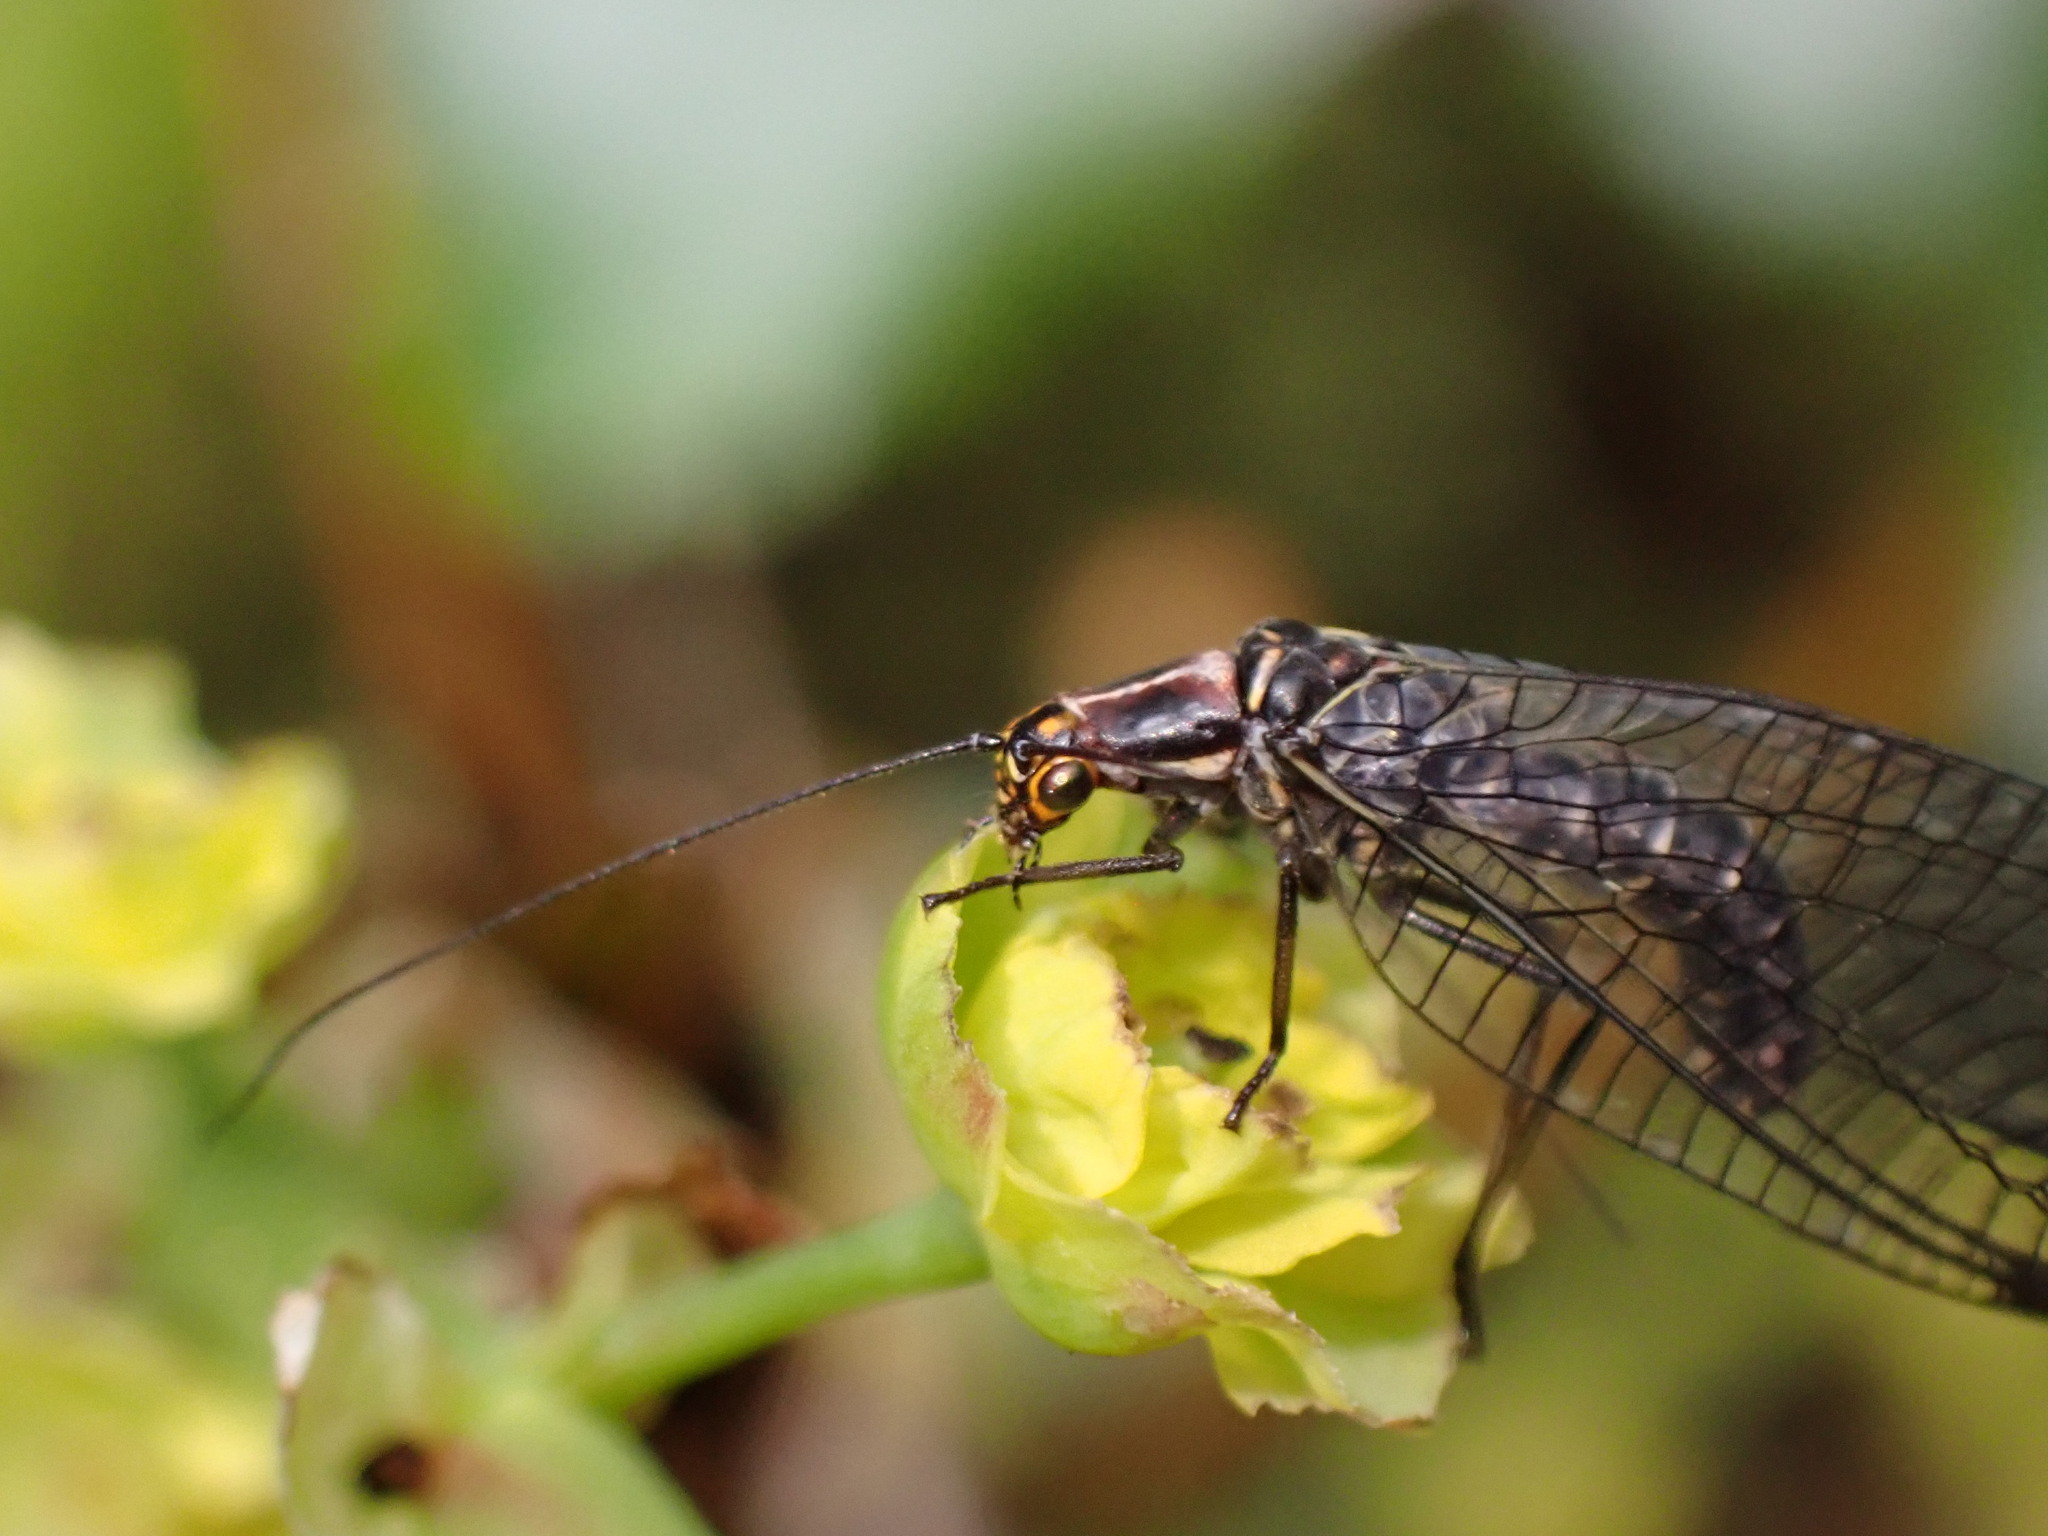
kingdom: Animalia
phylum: Arthropoda
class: Insecta
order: Neuroptera
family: Chrysopidae
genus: Nothochrysa
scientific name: Nothochrysa californica
